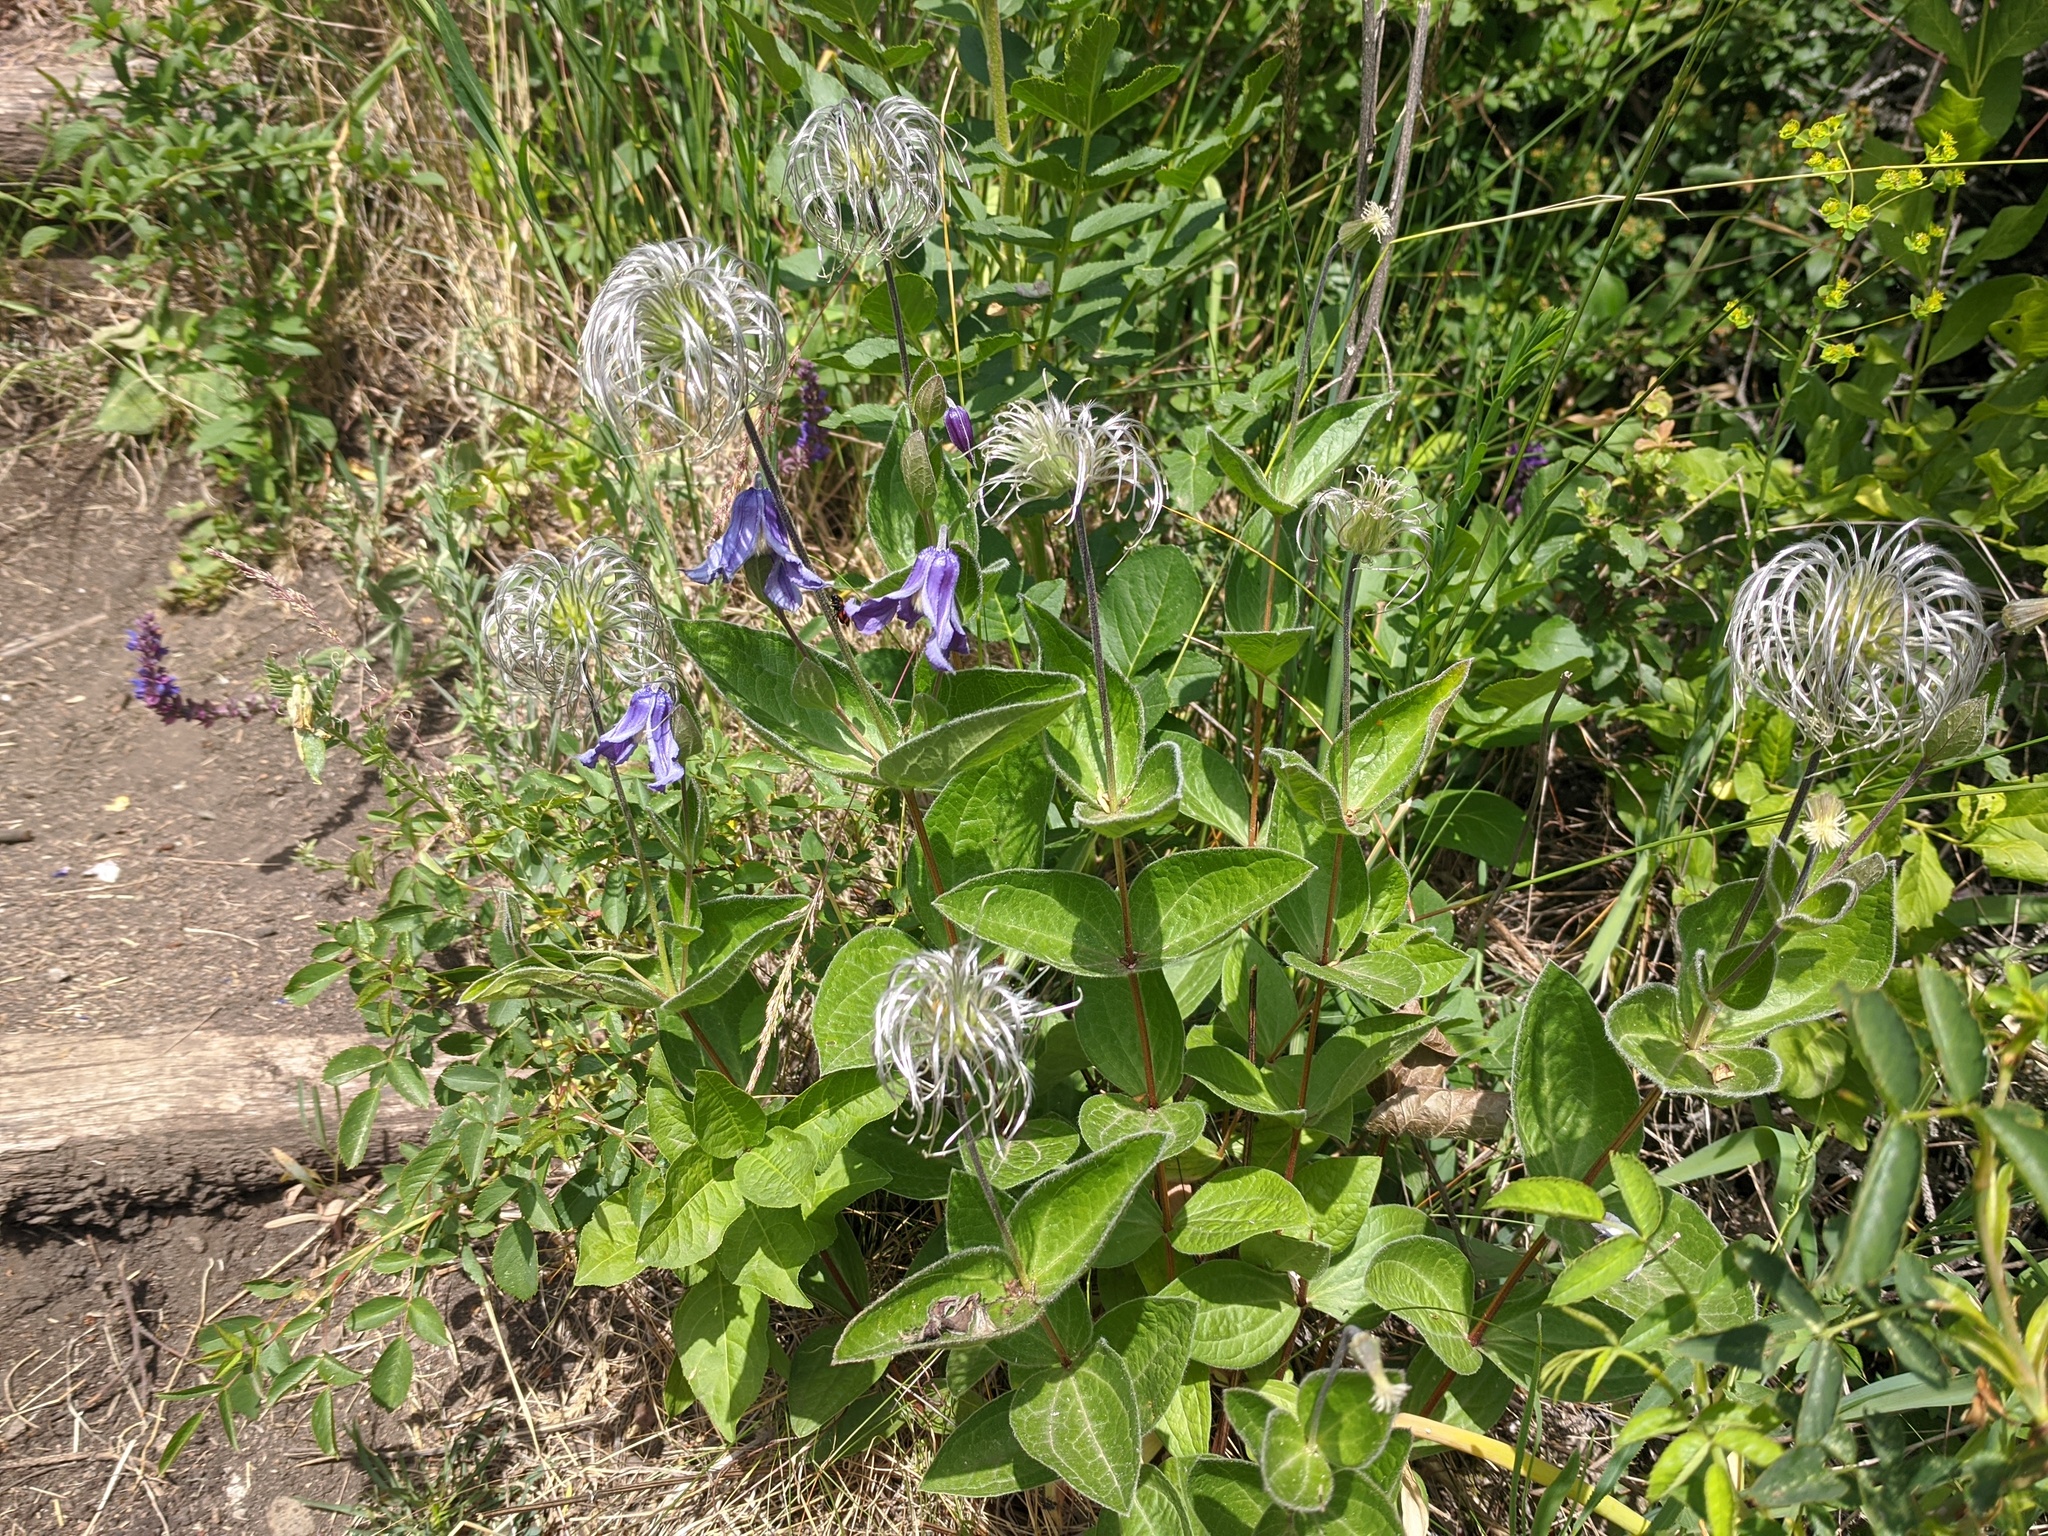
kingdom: Plantae
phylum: Tracheophyta
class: Magnoliopsida
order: Ranunculales
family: Ranunculaceae
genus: Clematis
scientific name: Clematis integrifolia
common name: Solitary clematis
